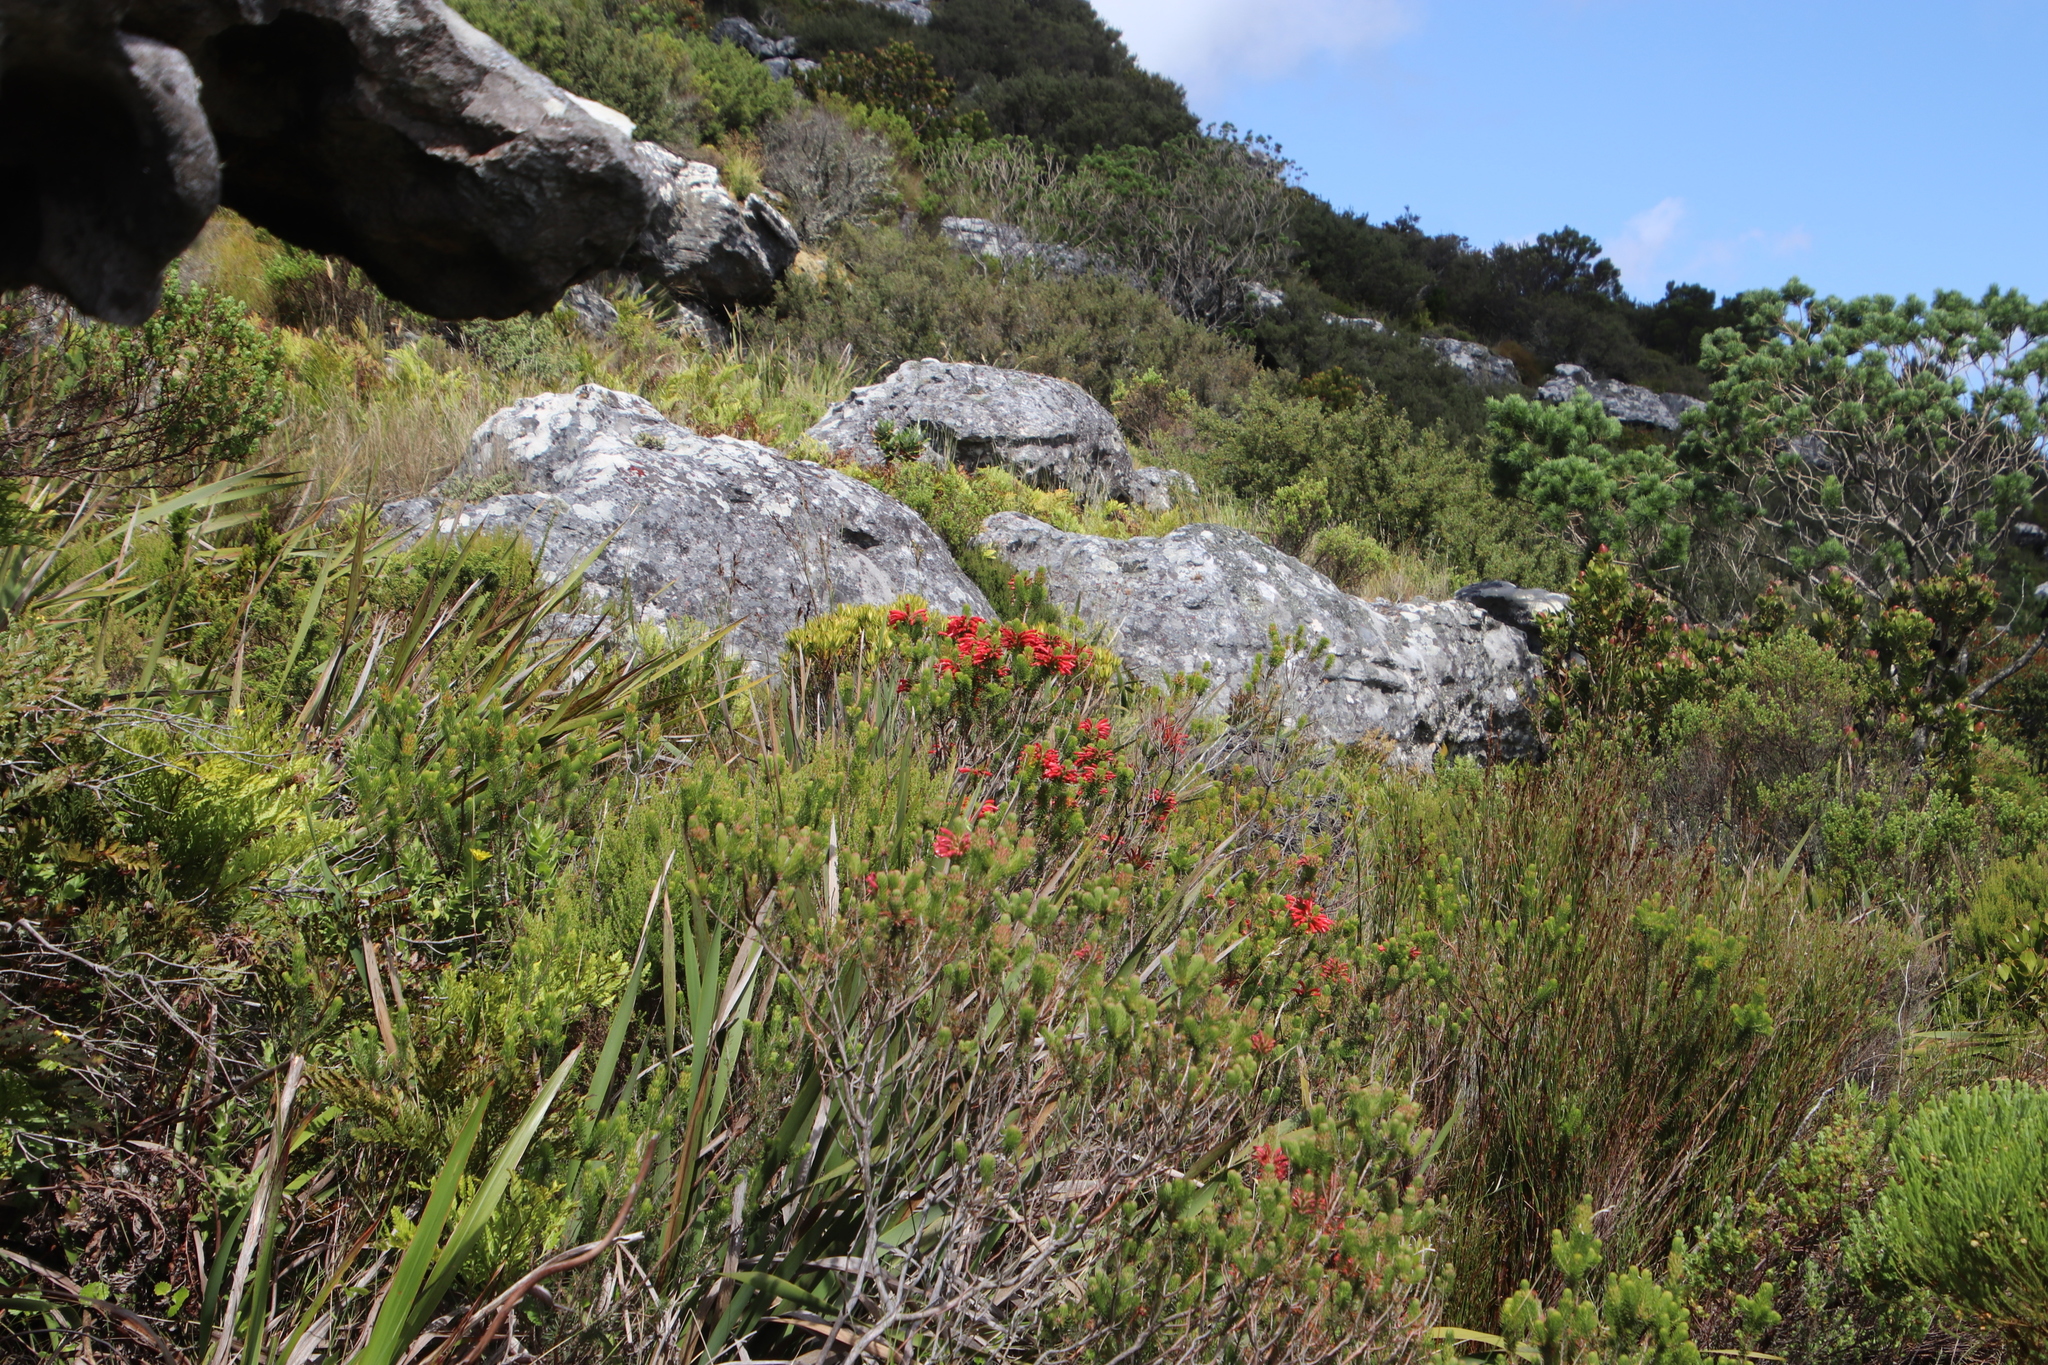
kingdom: Plantae
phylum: Tracheophyta
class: Magnoliopsida
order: Ericales
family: Ericaceae
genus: Erica
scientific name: Erica abietina
